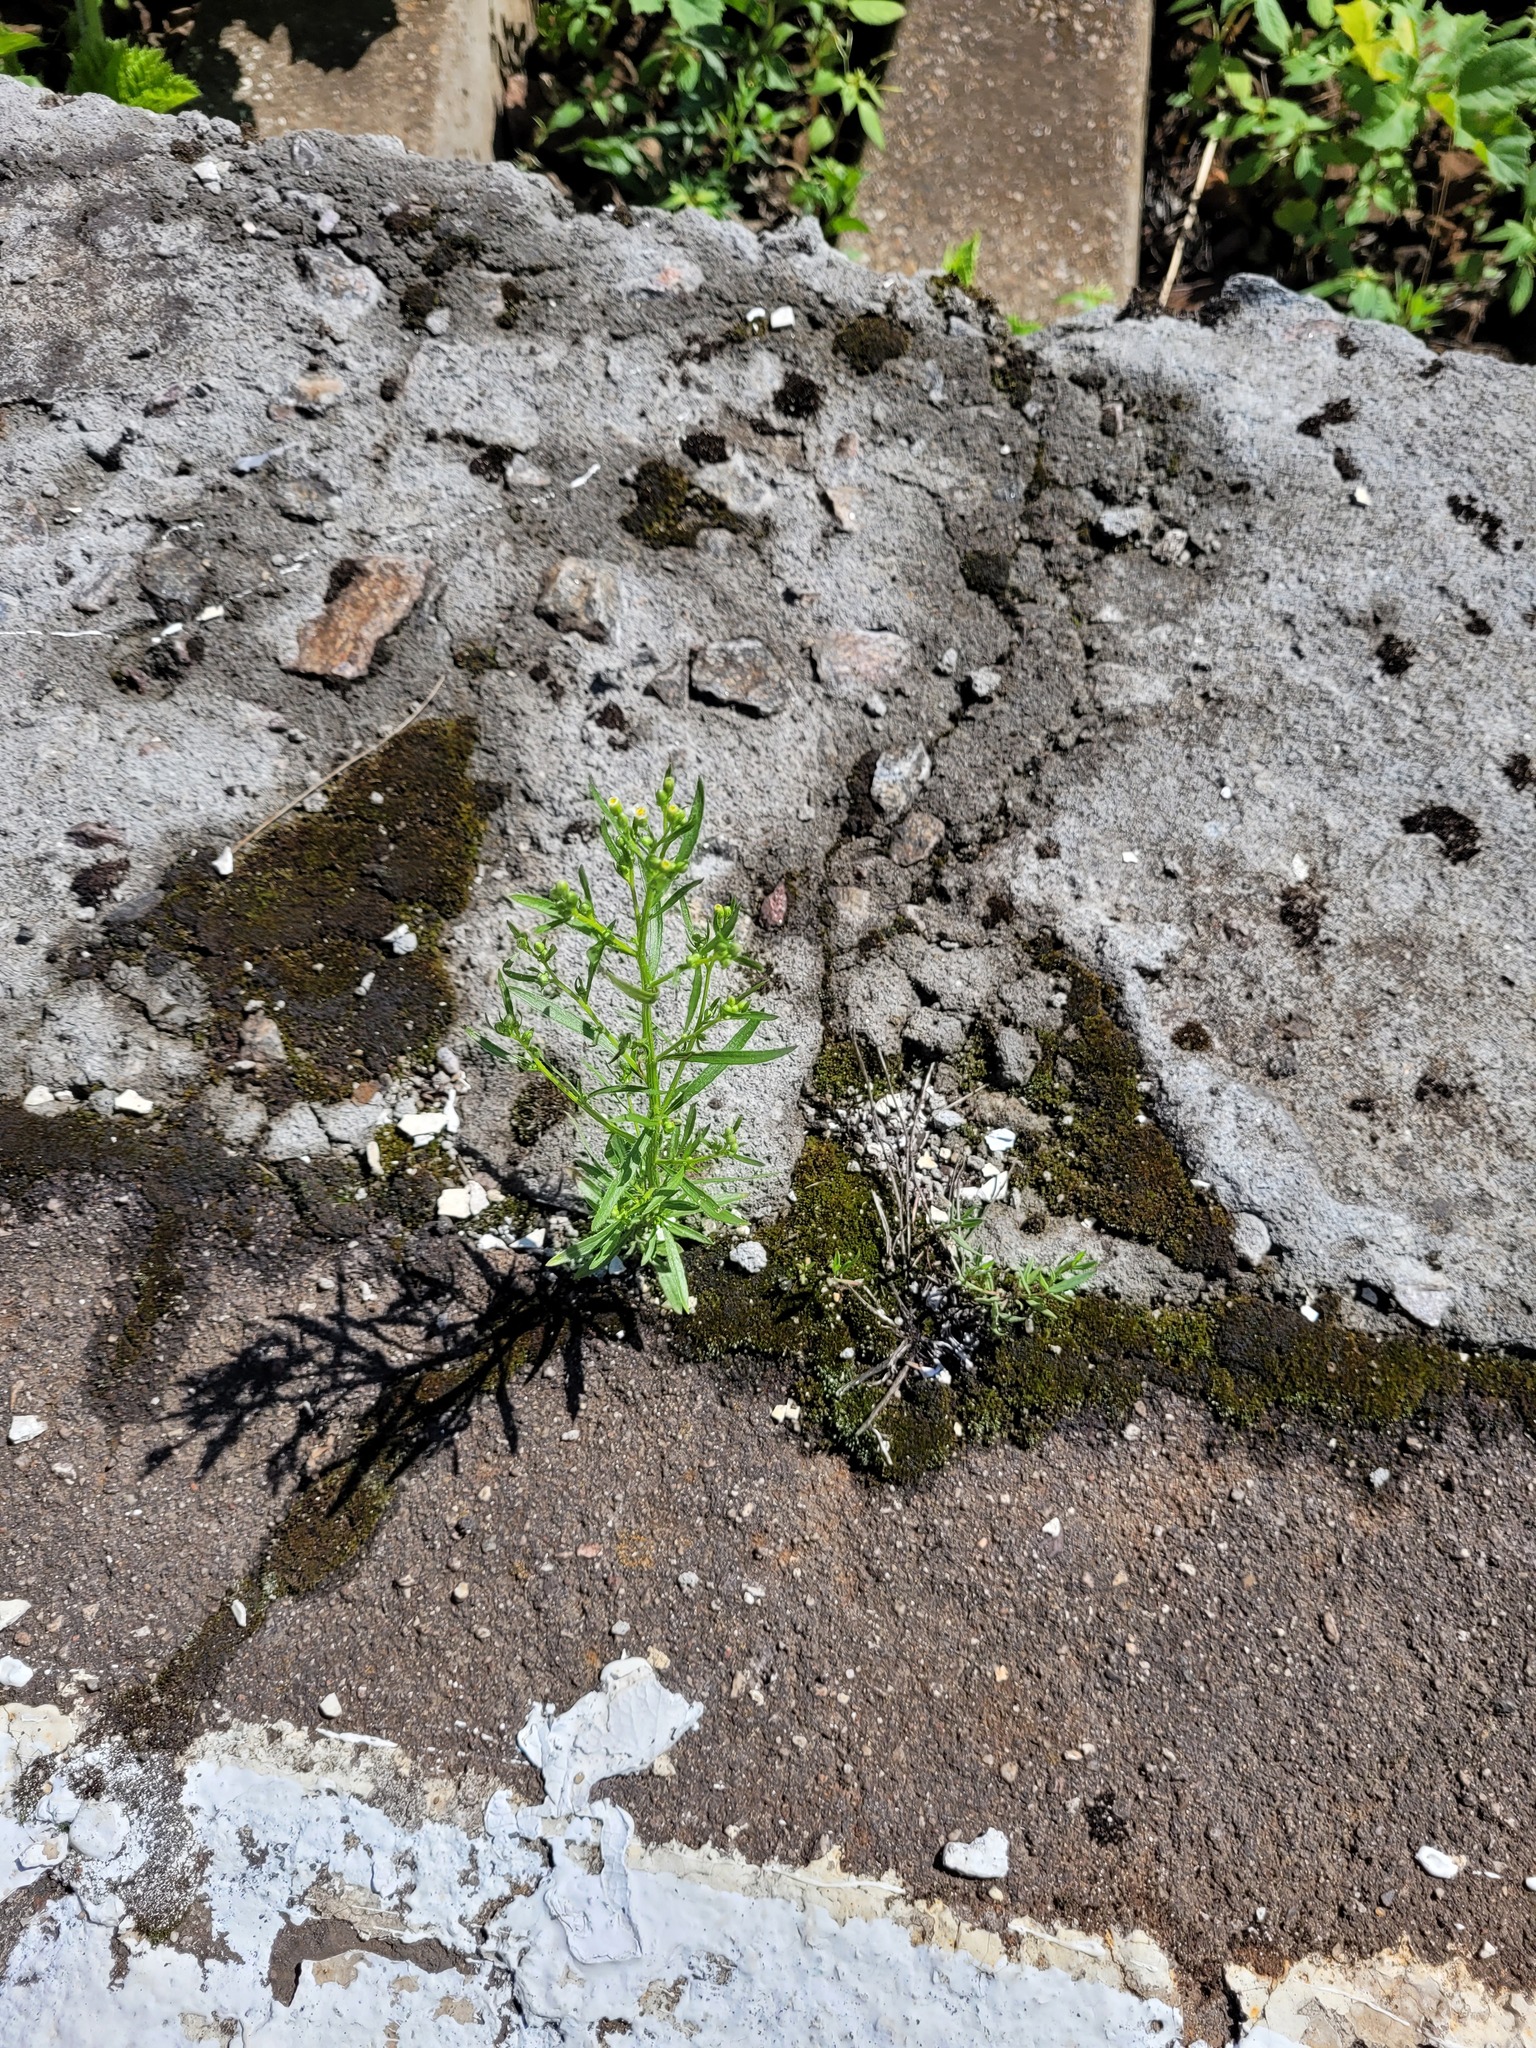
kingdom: Plantae
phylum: Tracheophyta
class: Magnoliopsida
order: Asterales
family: Asteraceae
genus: Erigeron
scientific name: Erigeron canadensis
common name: Canadian fleabane
